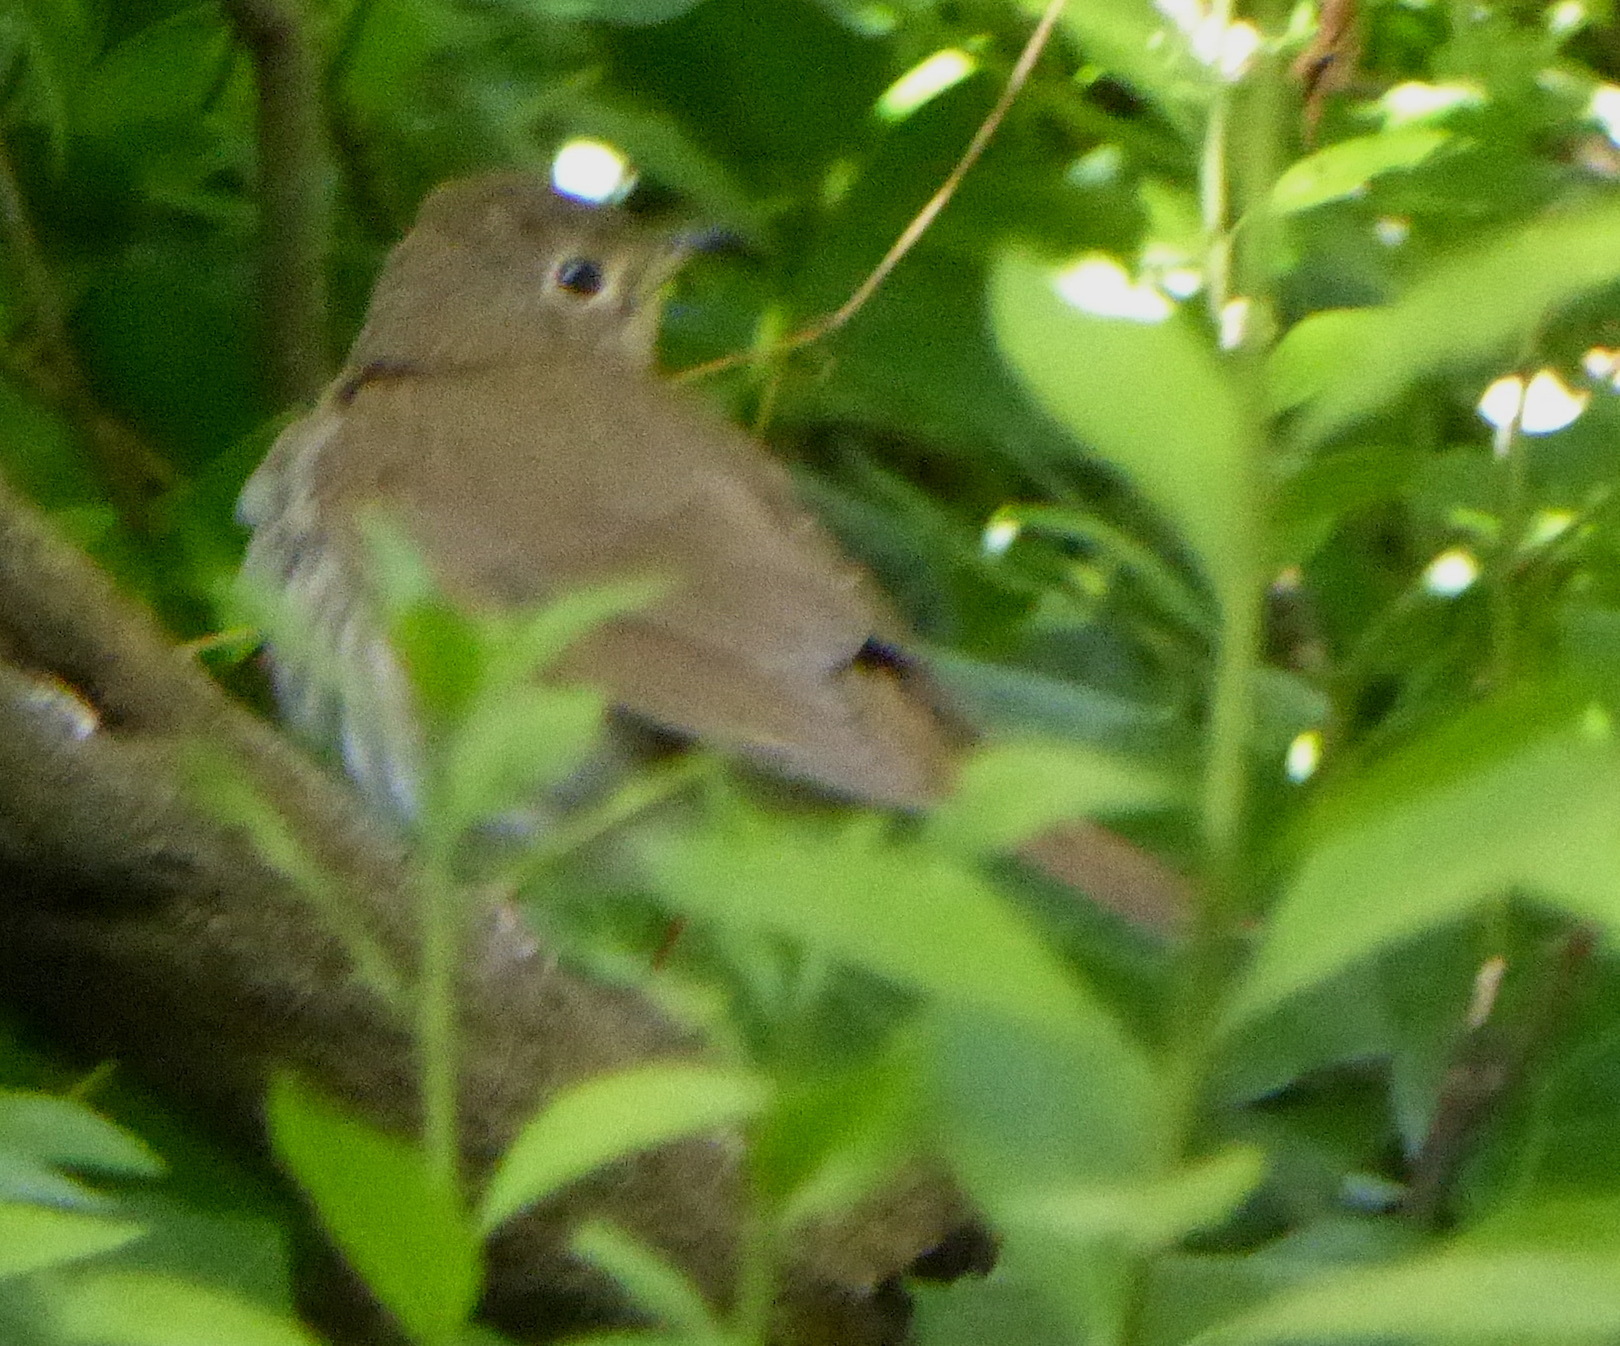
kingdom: Animalia
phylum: Chordata
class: Aves
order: Passeriformes
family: Turdidae
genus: Catharus
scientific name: Catharus ustulatus
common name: Swainson's thrush
